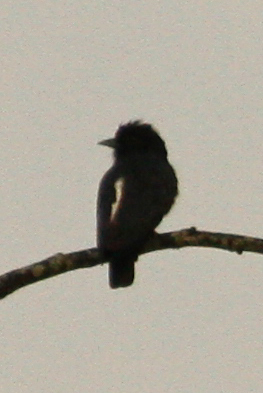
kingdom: Animalia
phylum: Chordata
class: Aves
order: Piciformes
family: Bucconidae
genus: Monasa
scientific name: Monasa flavirostris
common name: Yellow-billed nunbird
